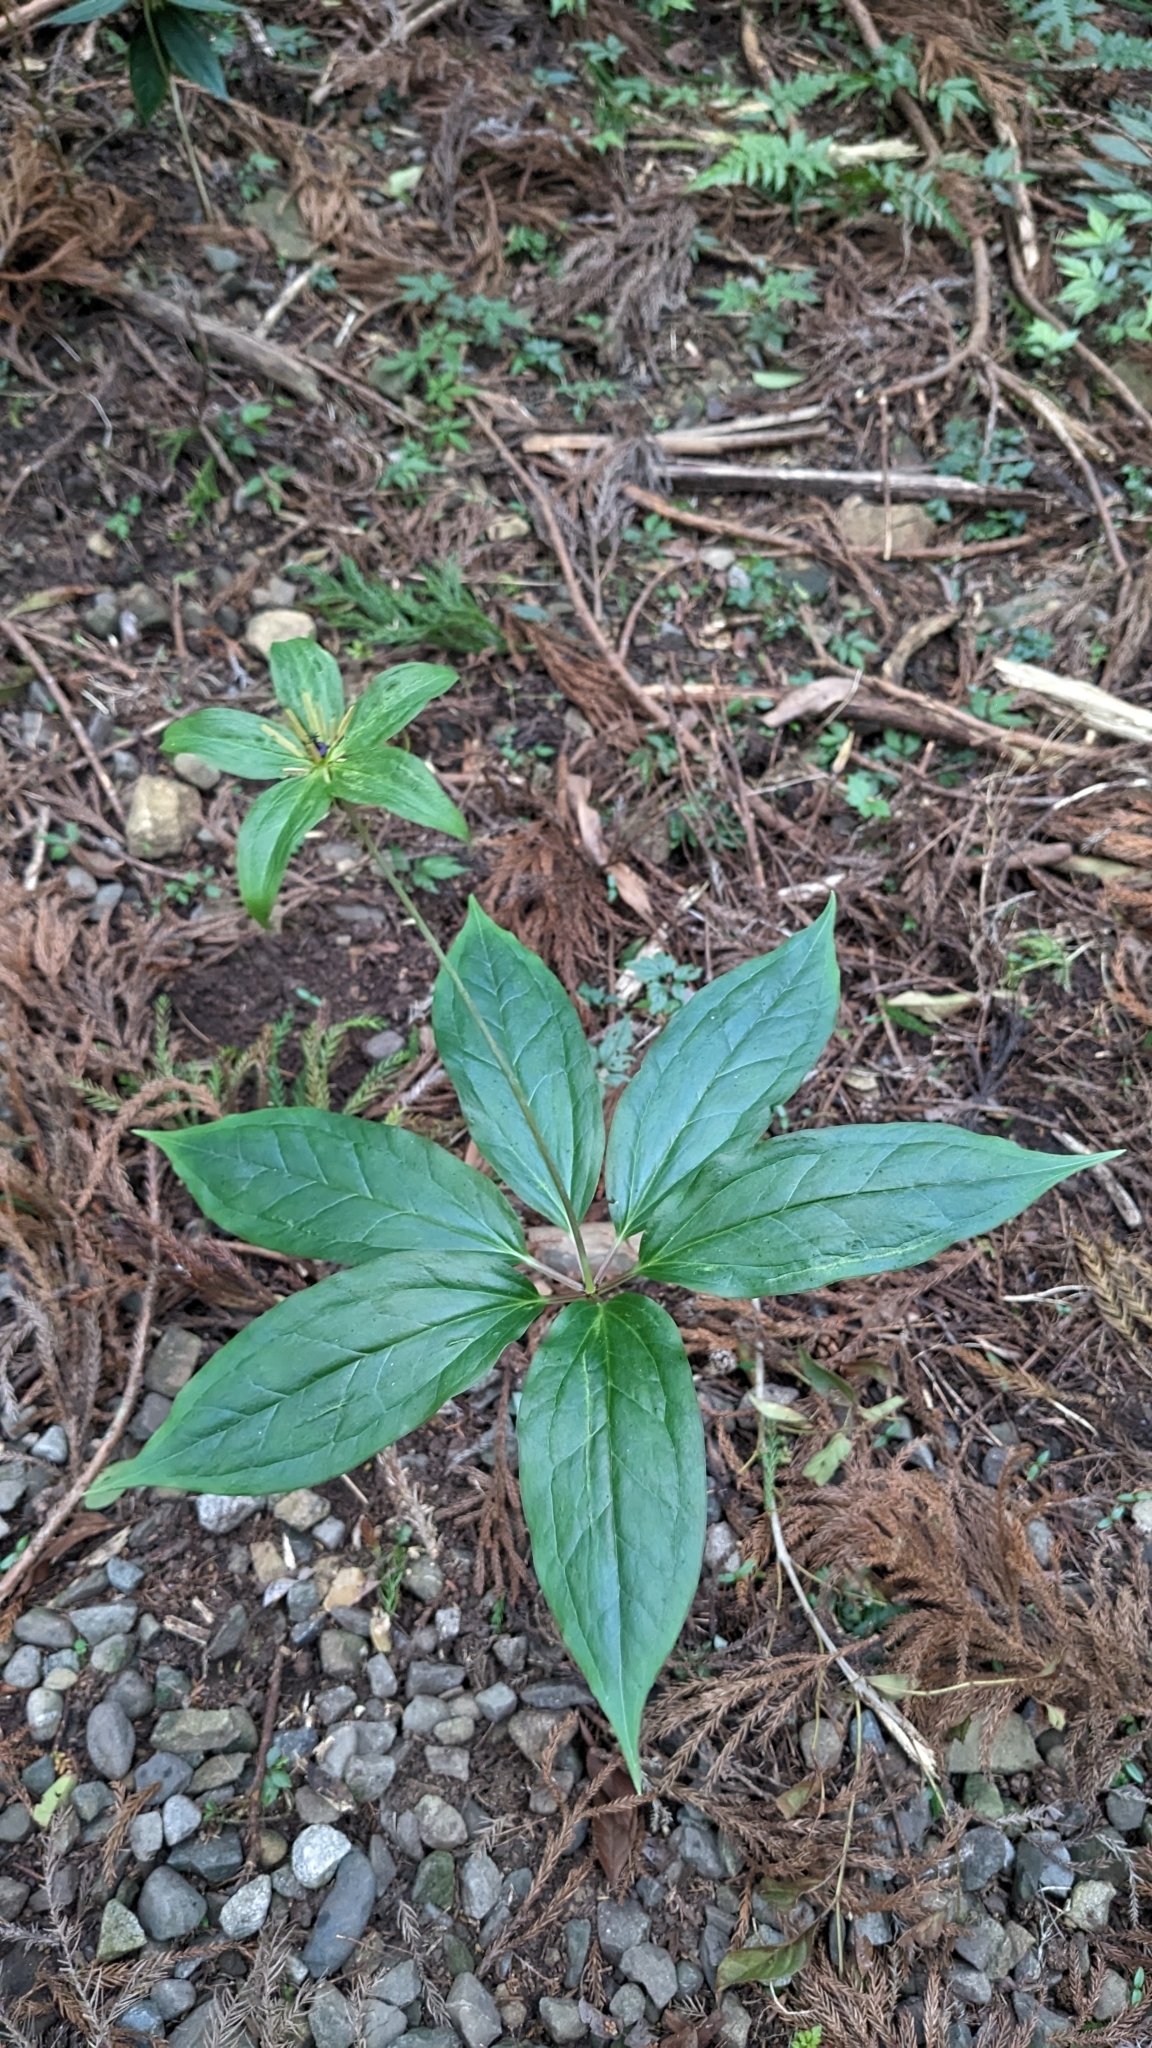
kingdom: Plantae
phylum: Tracheophyta
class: Liliopsida
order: Liliales
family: Melanthiaceae
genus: Paris
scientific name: Paris polyphylla
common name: Love apple
